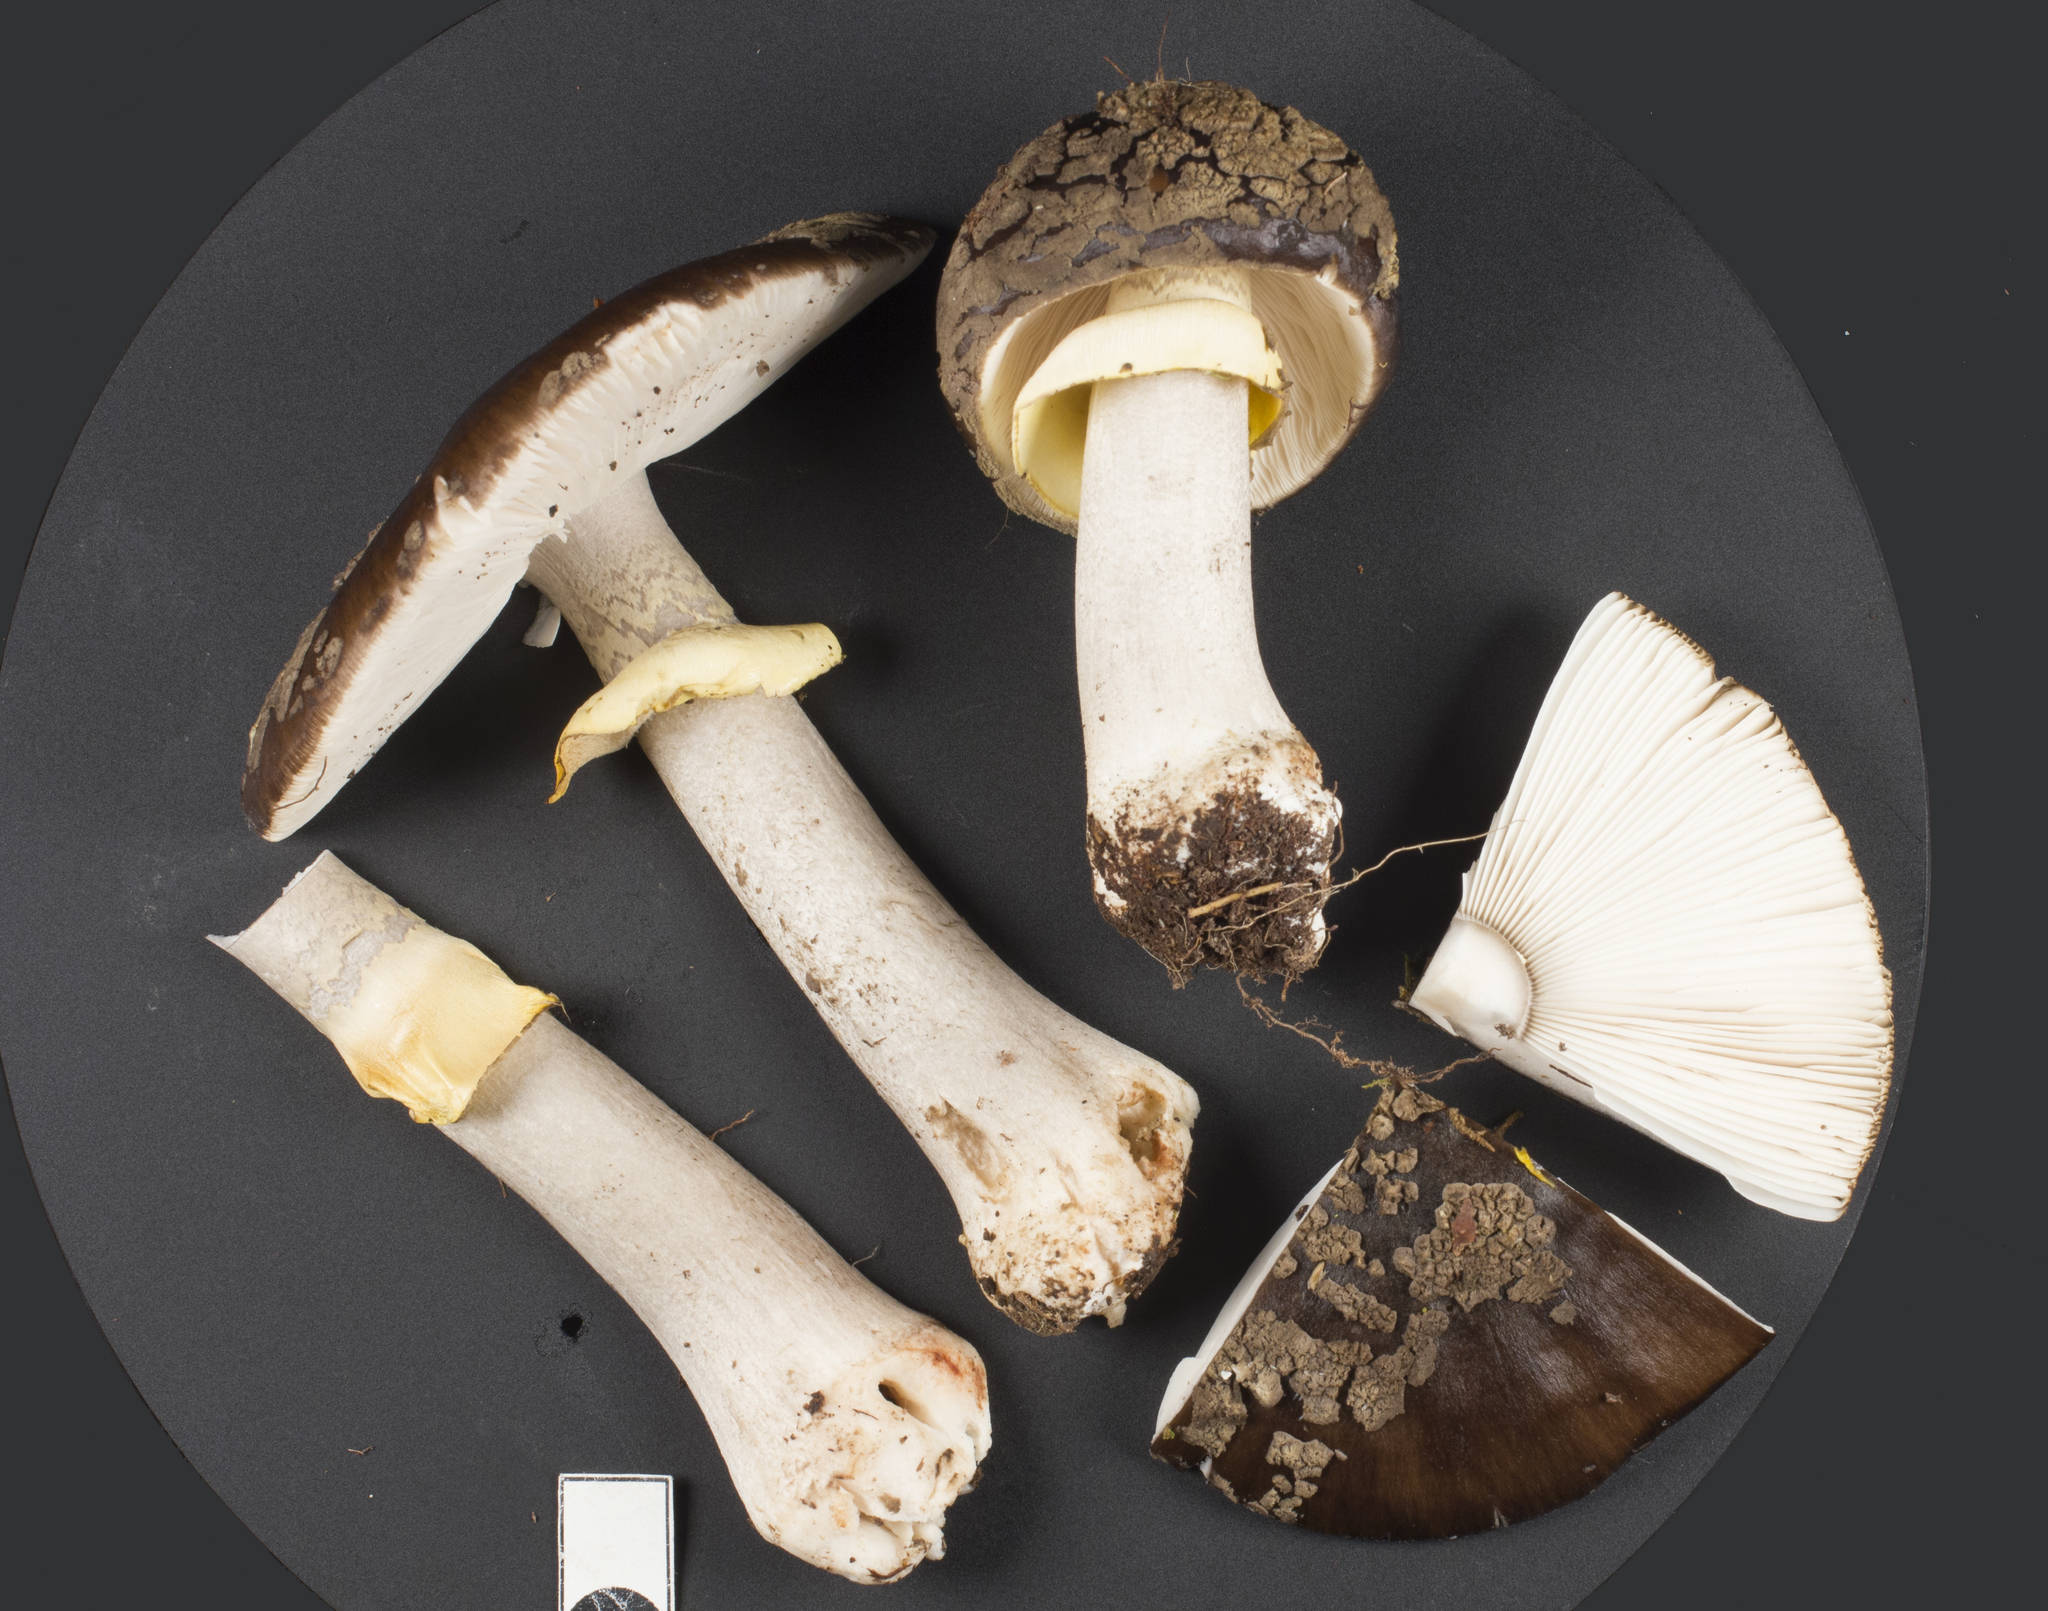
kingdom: Fungi
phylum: Basidiomycota
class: Agaricomycetes
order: Agaricales
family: Amanitaceae
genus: Amanita
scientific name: Amanita nothofagi
